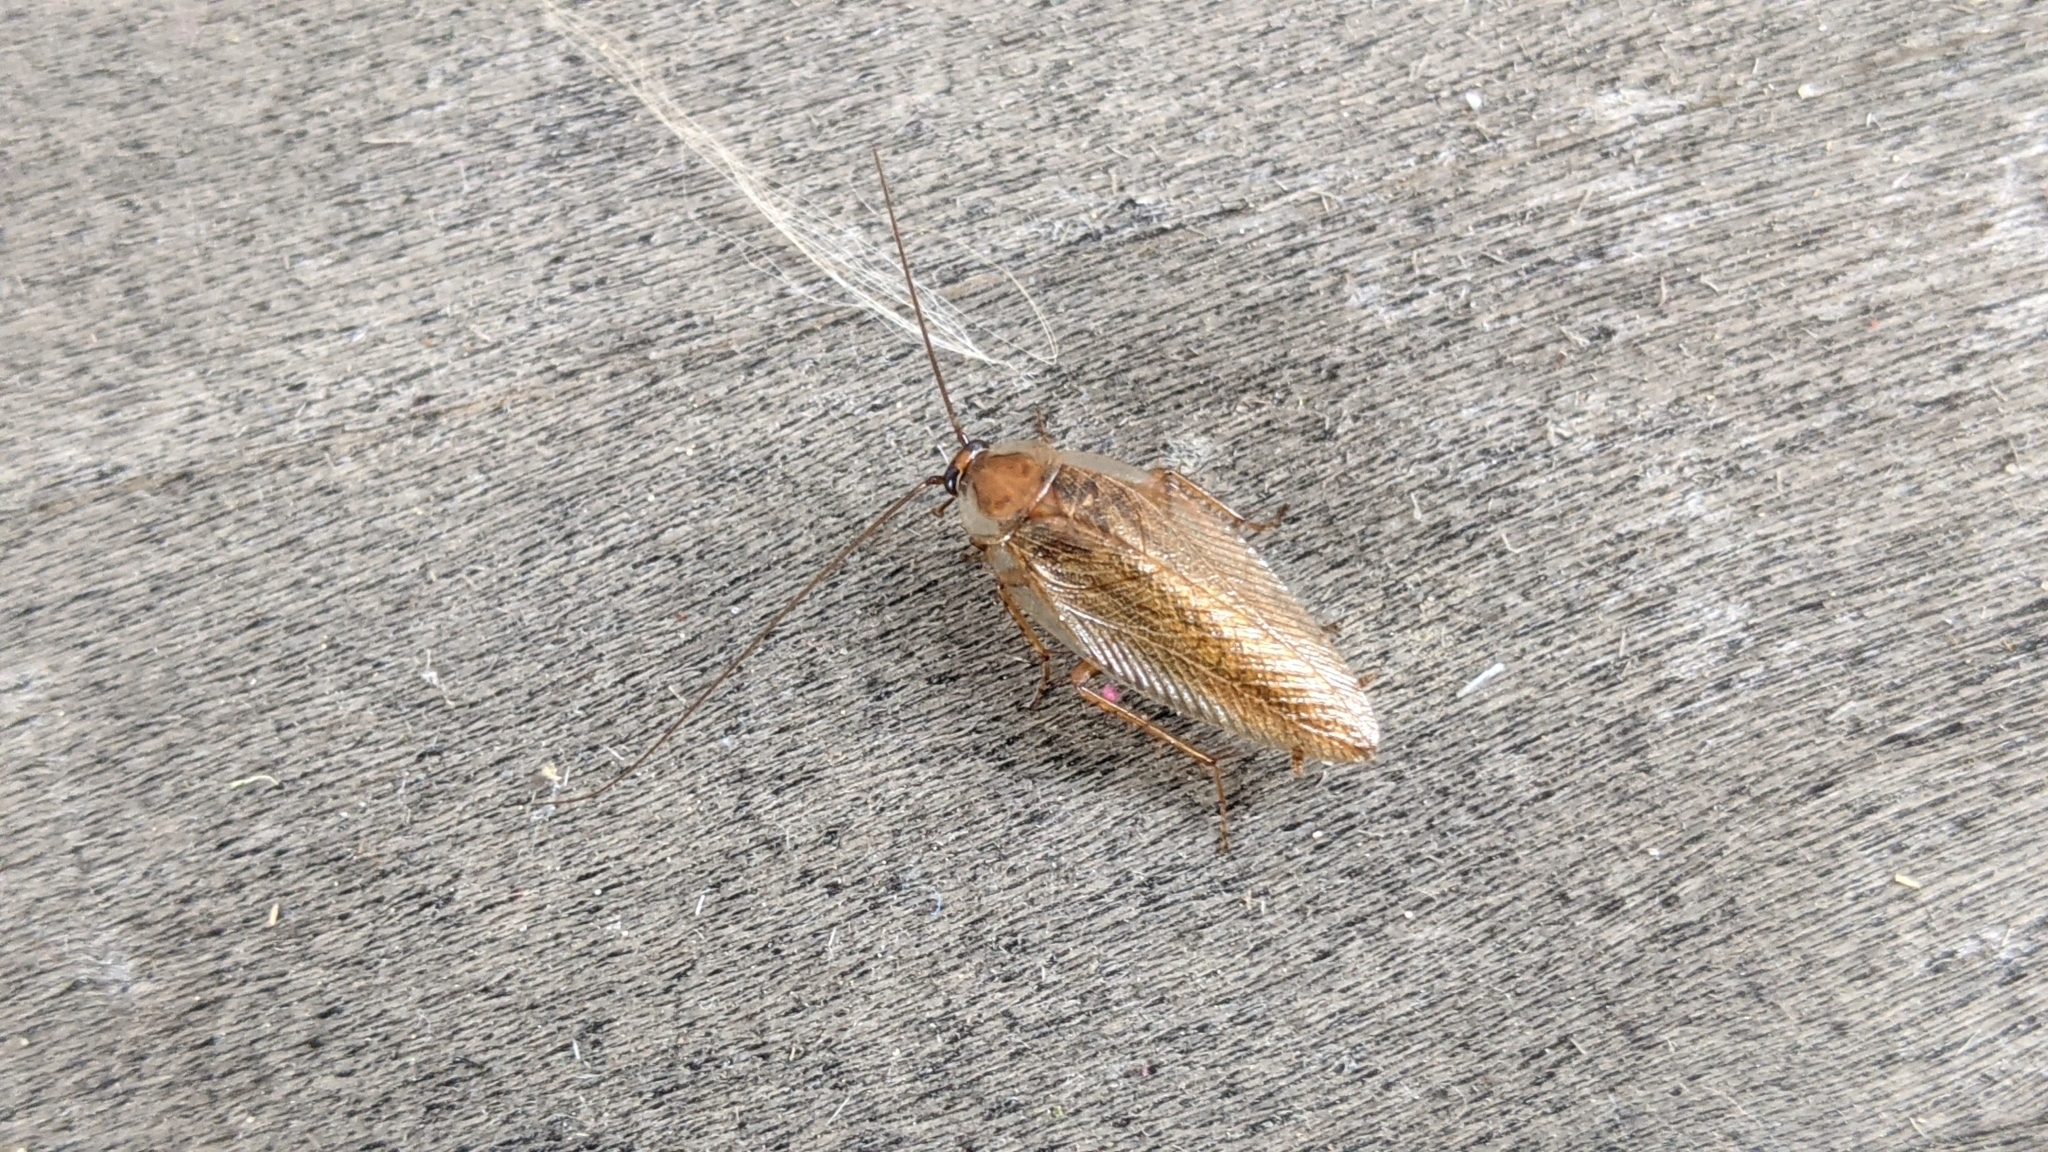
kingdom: Animalia
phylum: Arthropoda
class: Insecta
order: Blattodea
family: Ectobiidae
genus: Ectobius
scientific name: Ectobius vittiventris
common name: Garden cockroach
